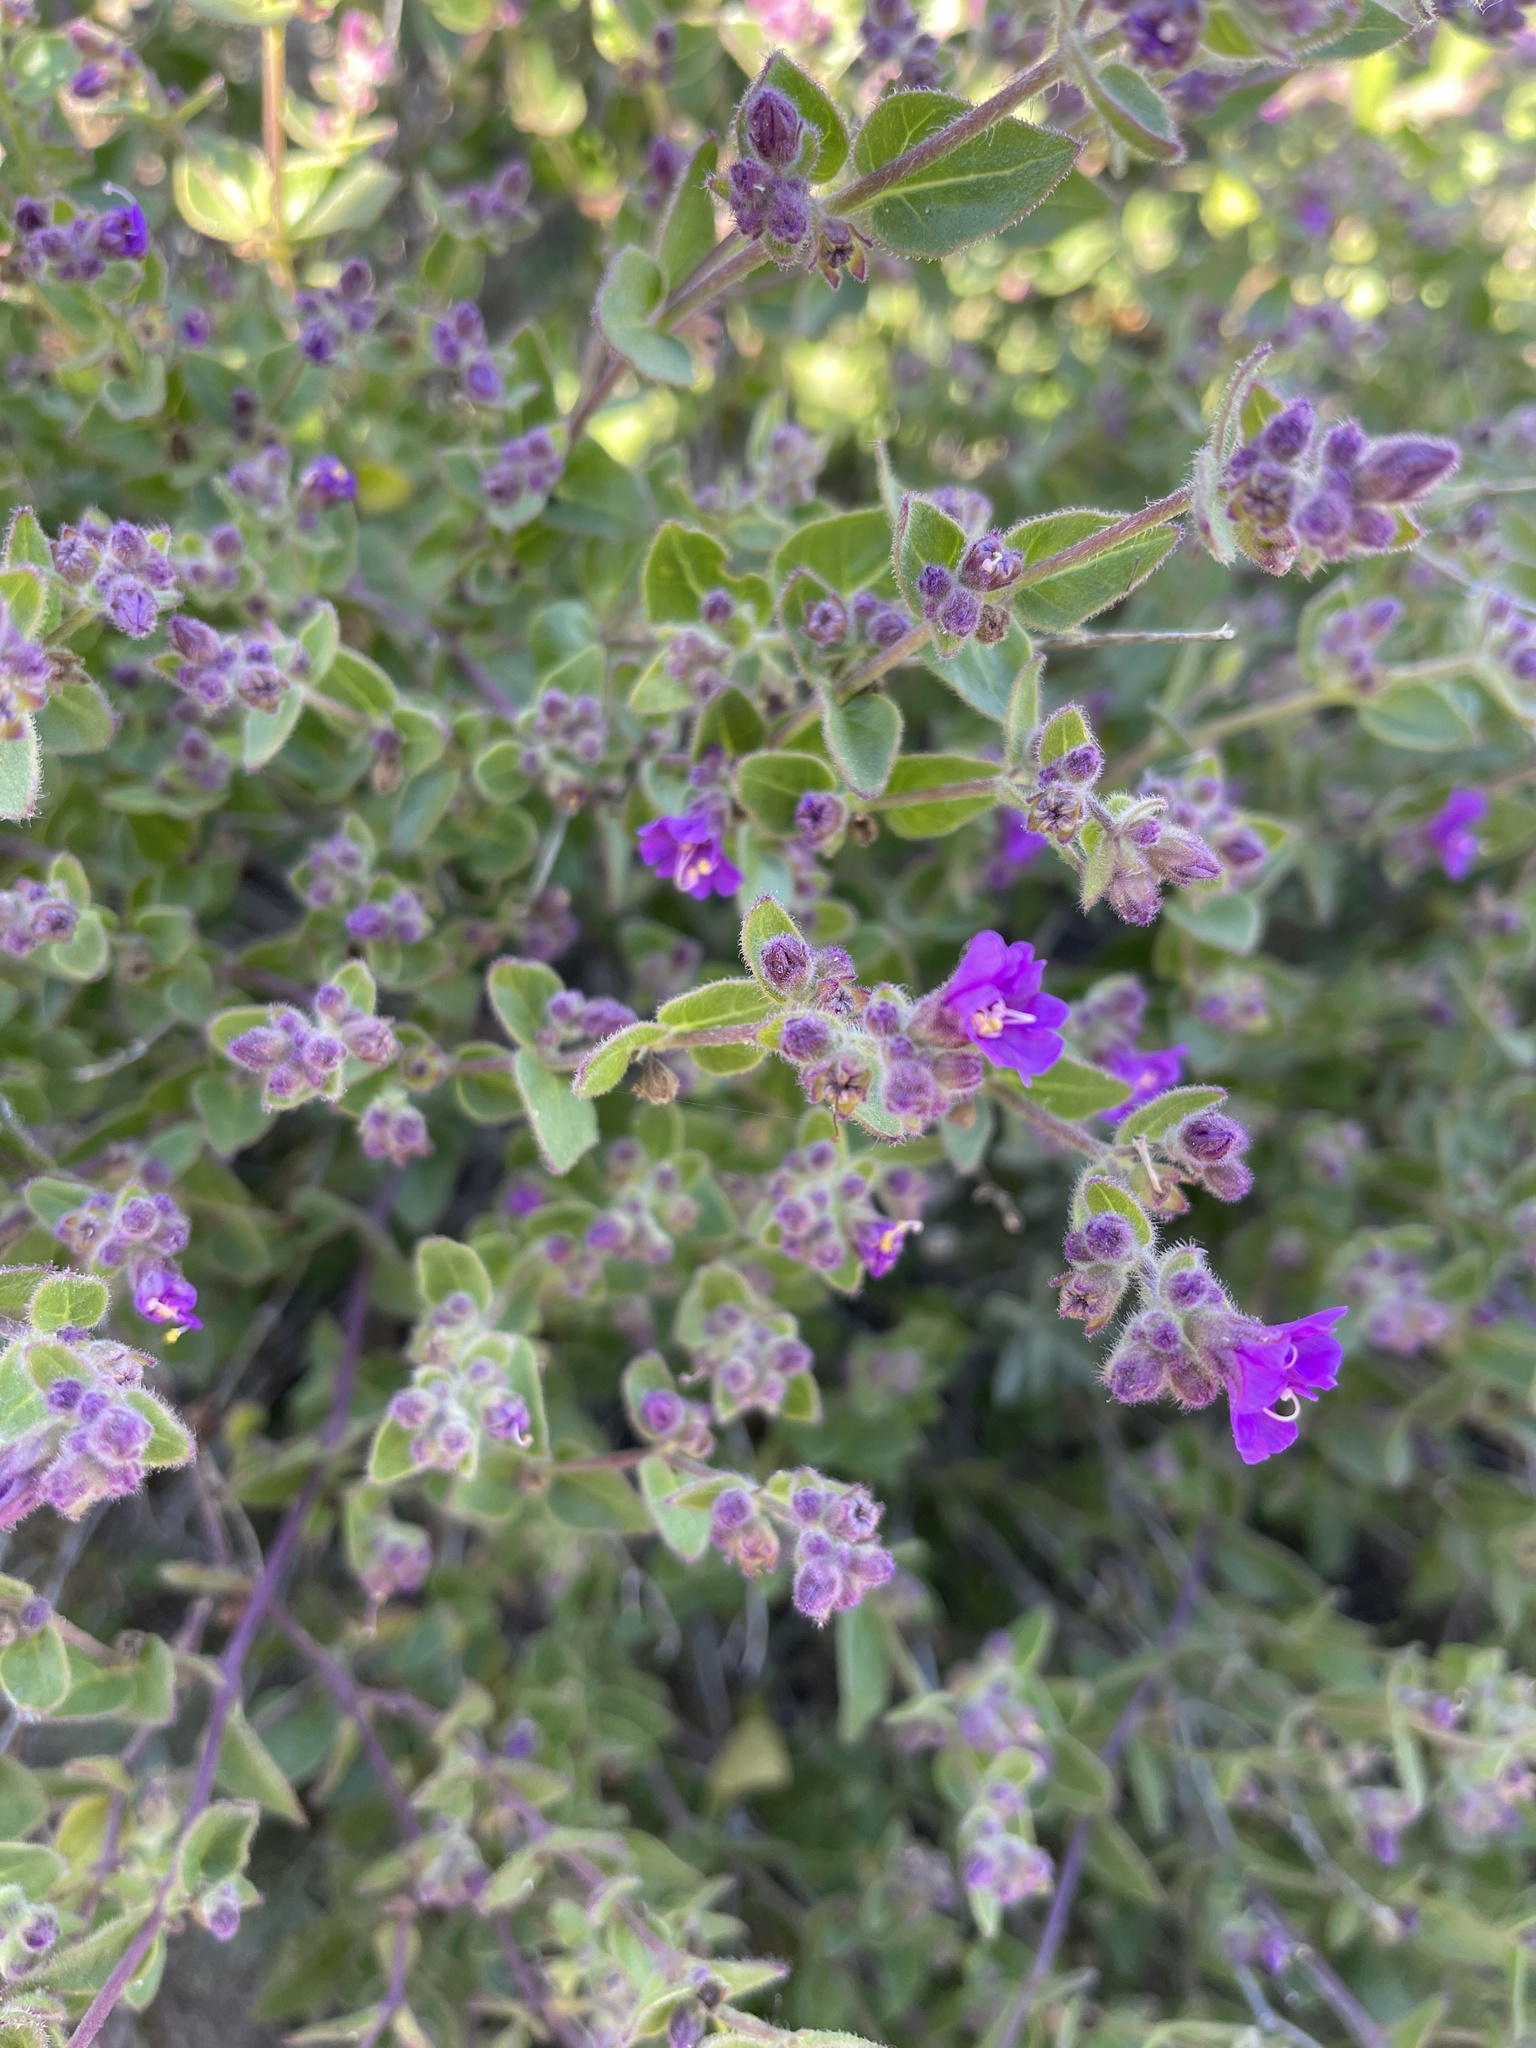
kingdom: Plantae
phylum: Tracheophyta
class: Magnoliopsida
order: Caryophyllales
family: Nyctaginaceae
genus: Mirabilis
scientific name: Mirabilis laevis
